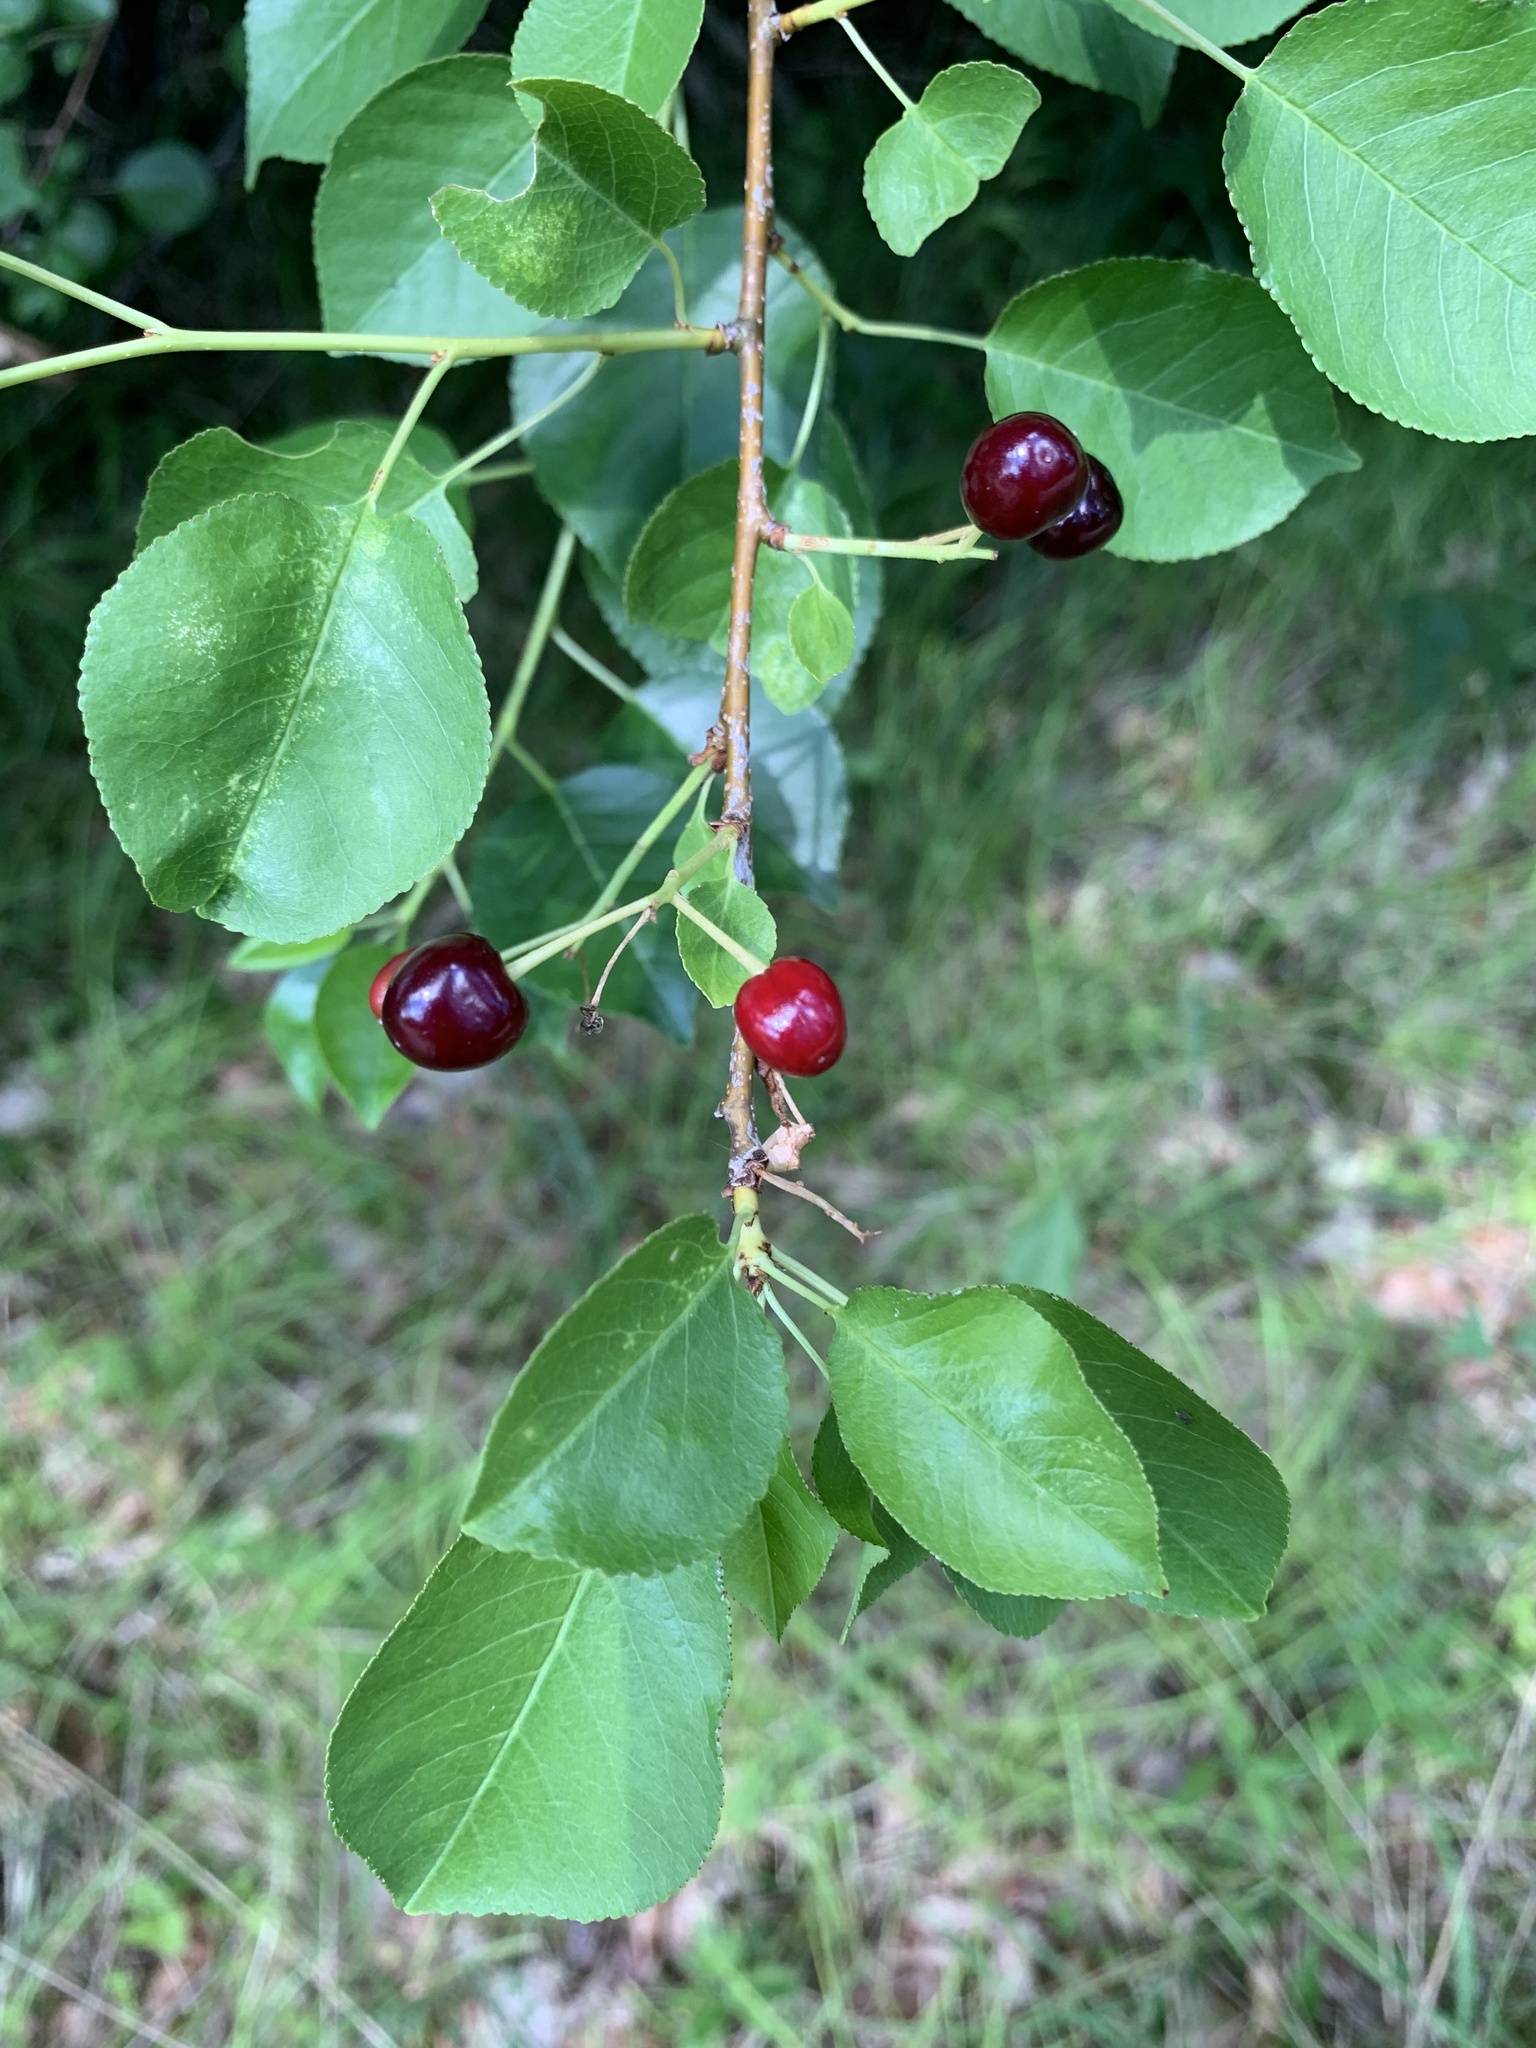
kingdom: Plantae
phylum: Tracheophyta
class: Magnoliopsida
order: Rosales
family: Rosaceae
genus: Prunus
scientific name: Prunus mahaleb
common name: Mahaleb cherry
